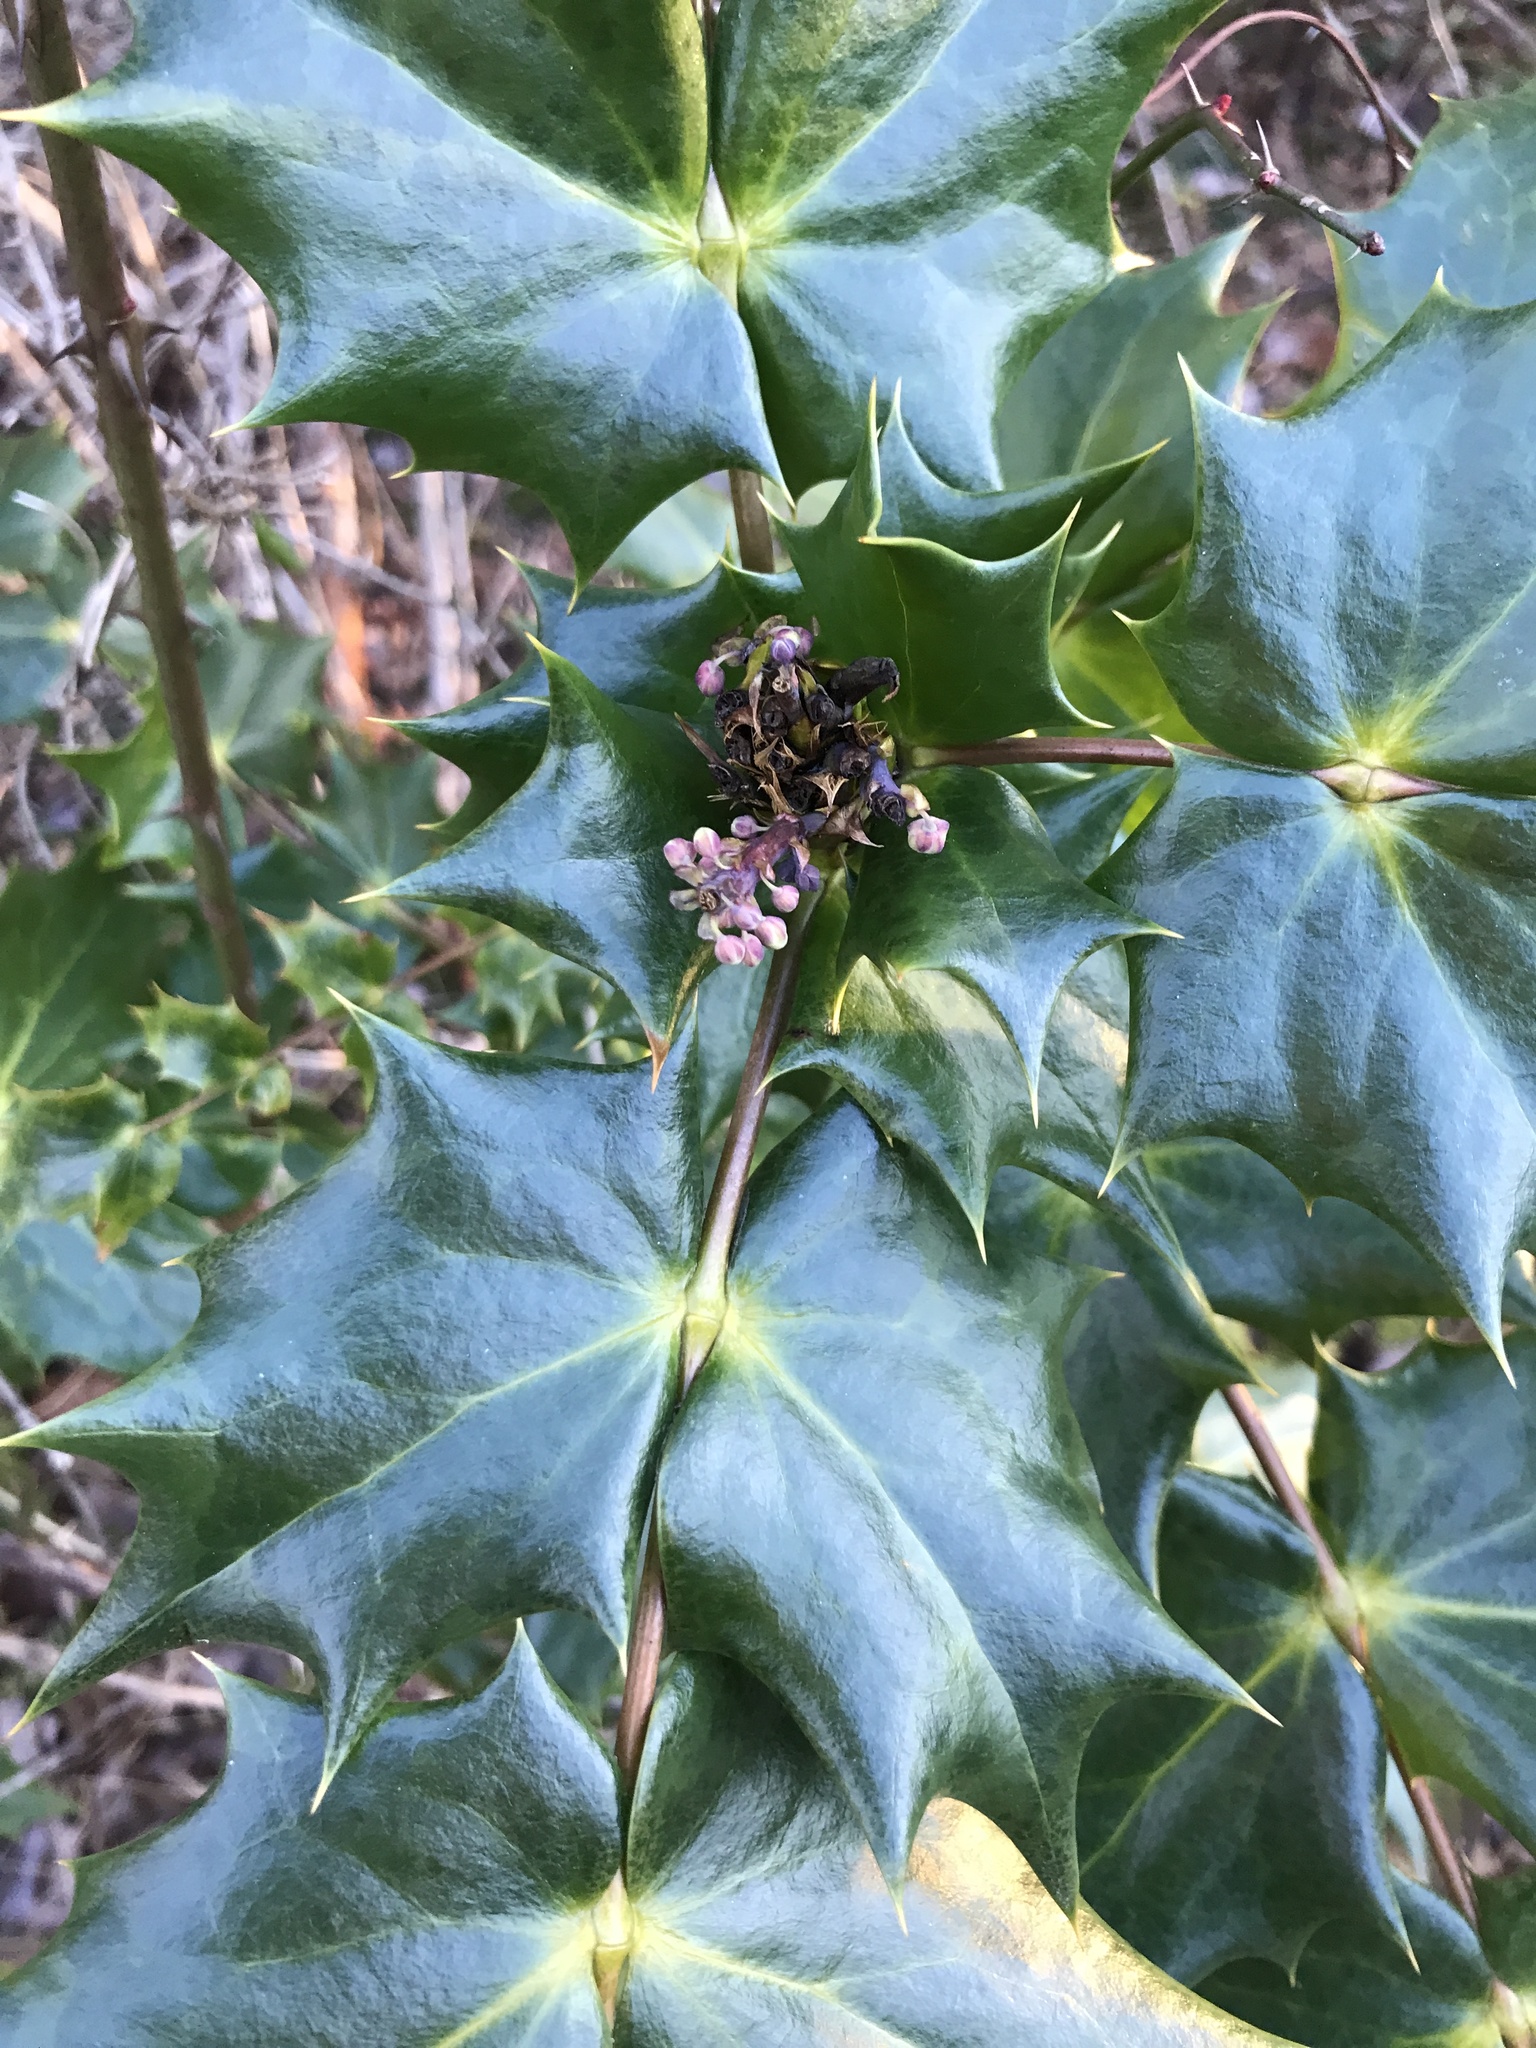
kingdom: Plantae
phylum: Tracheophyta
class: Magnoliopsida
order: Ranunculales
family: Berberidaceae
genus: Mahonia
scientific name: Mahonia bealei
